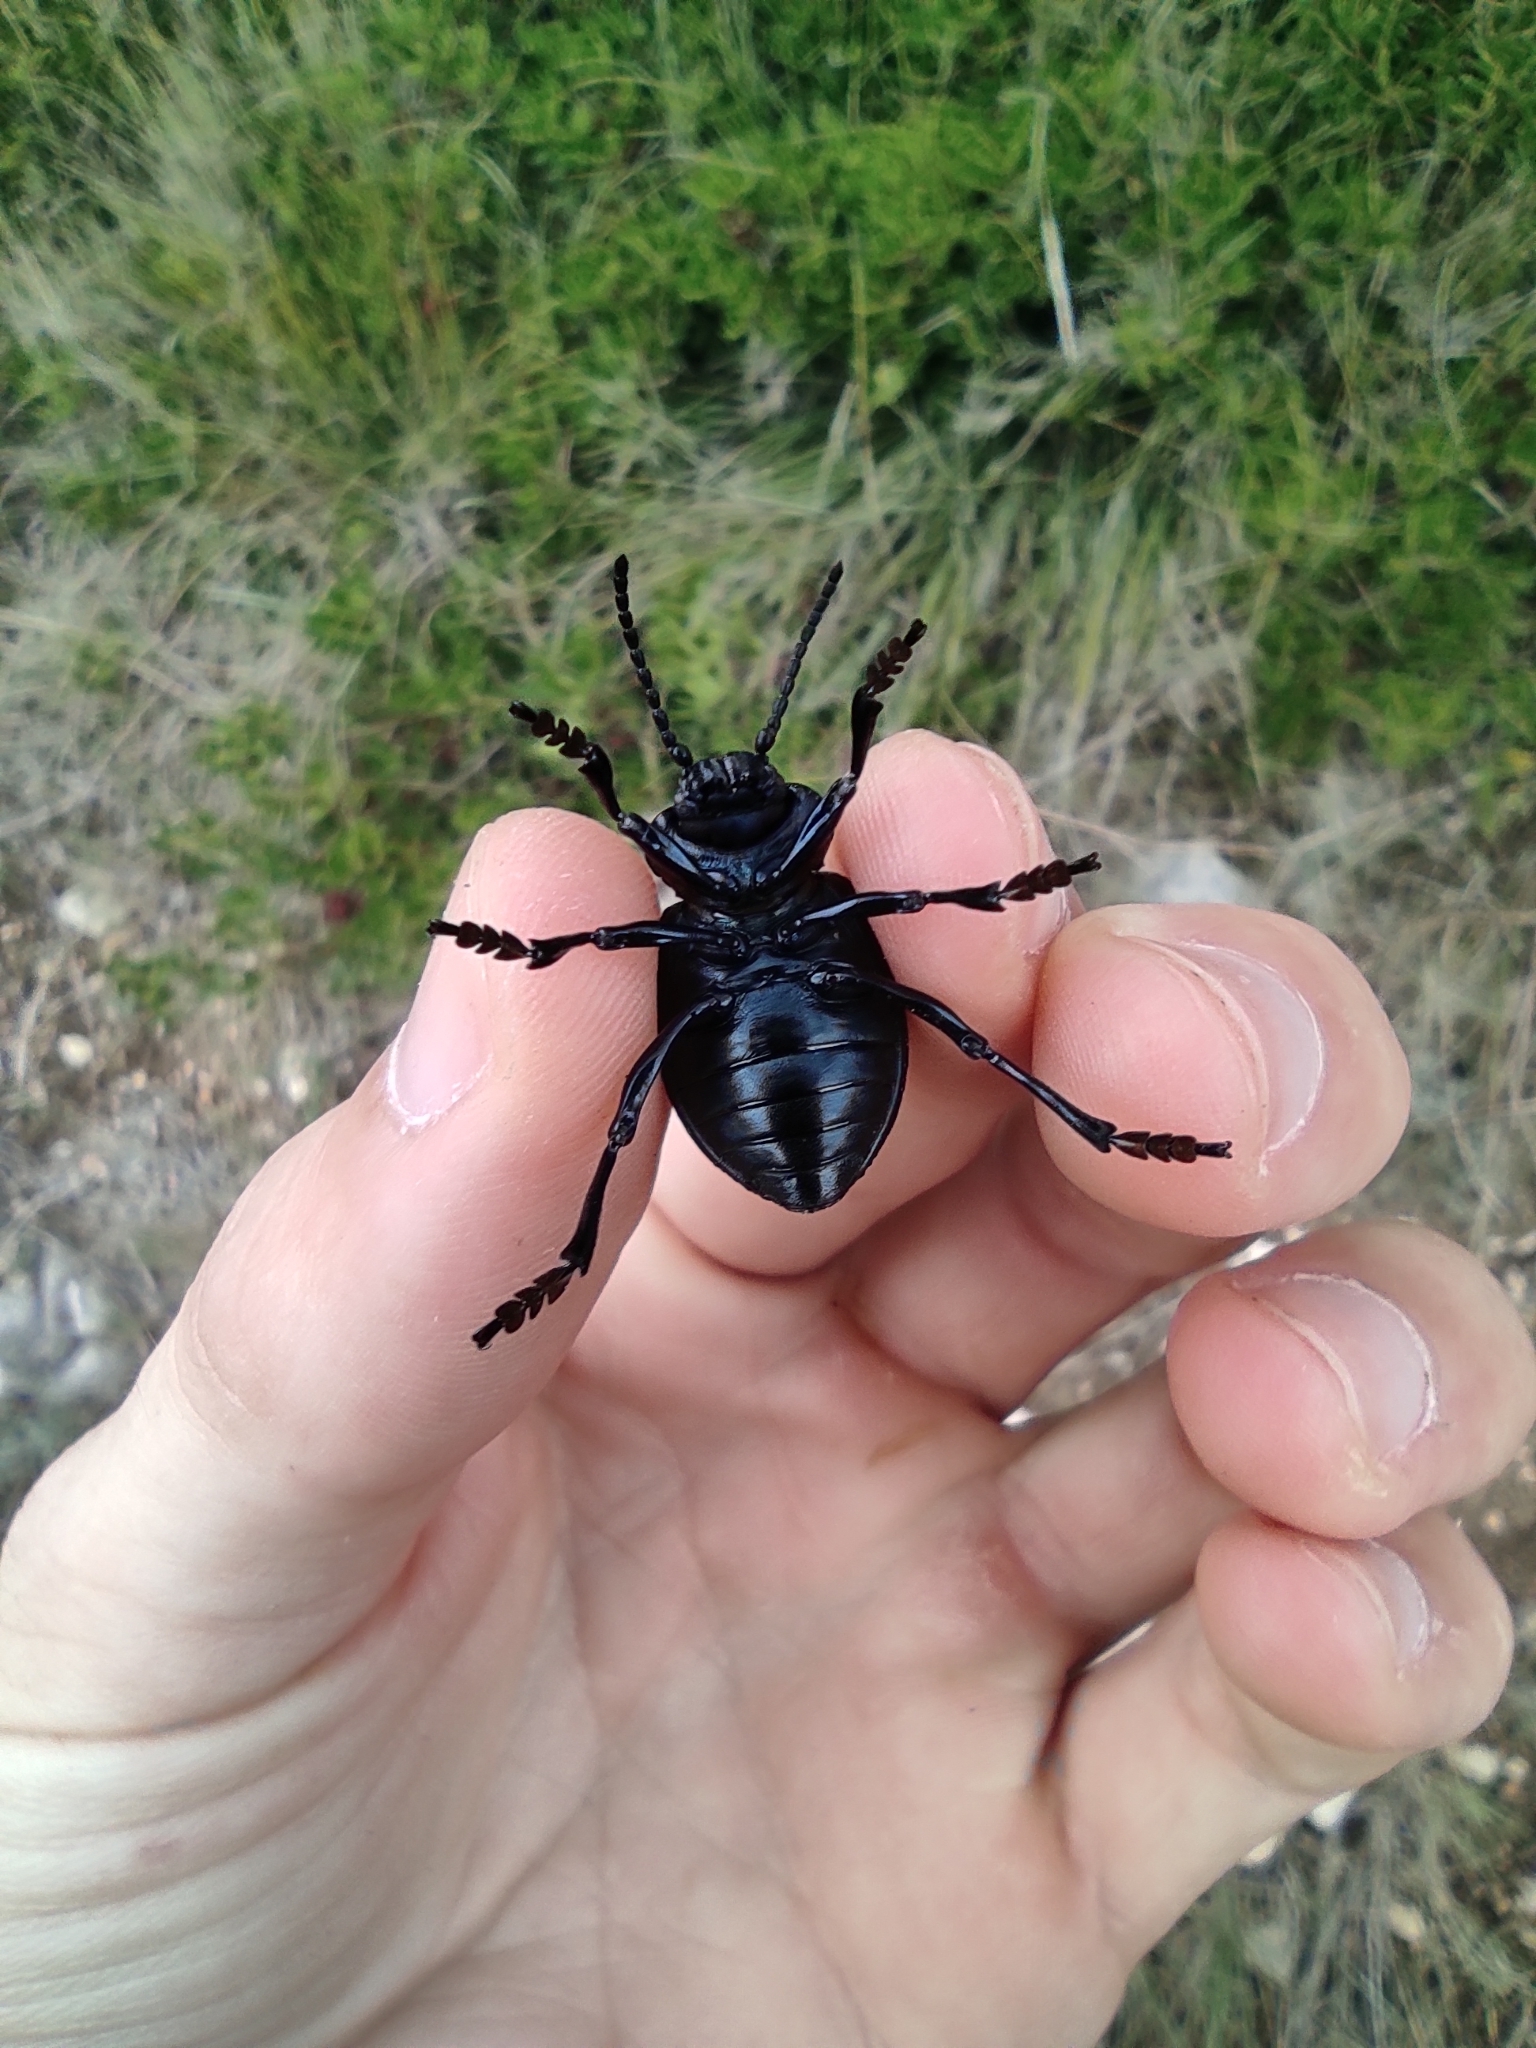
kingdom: Animalia
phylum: Arthropoda
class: Insecta
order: Coleoptera
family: Chrysomelidae
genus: Timarcha
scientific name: Timarcha tenebricosa
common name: Bloody-nosed beetle
